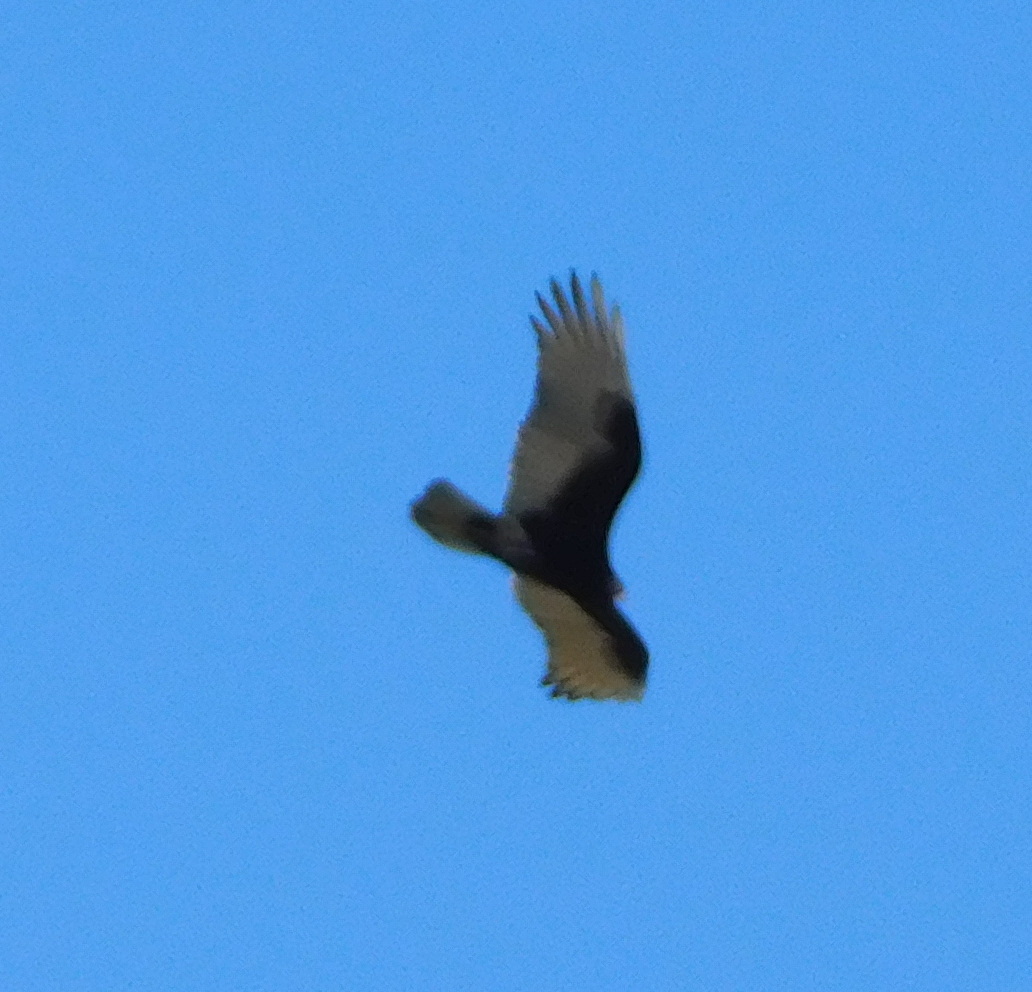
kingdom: Animalia
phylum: Chordata
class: Aves
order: Accipitriformes
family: Cathartidae
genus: Cathartes
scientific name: Cathartes aura
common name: Turkey vulture
